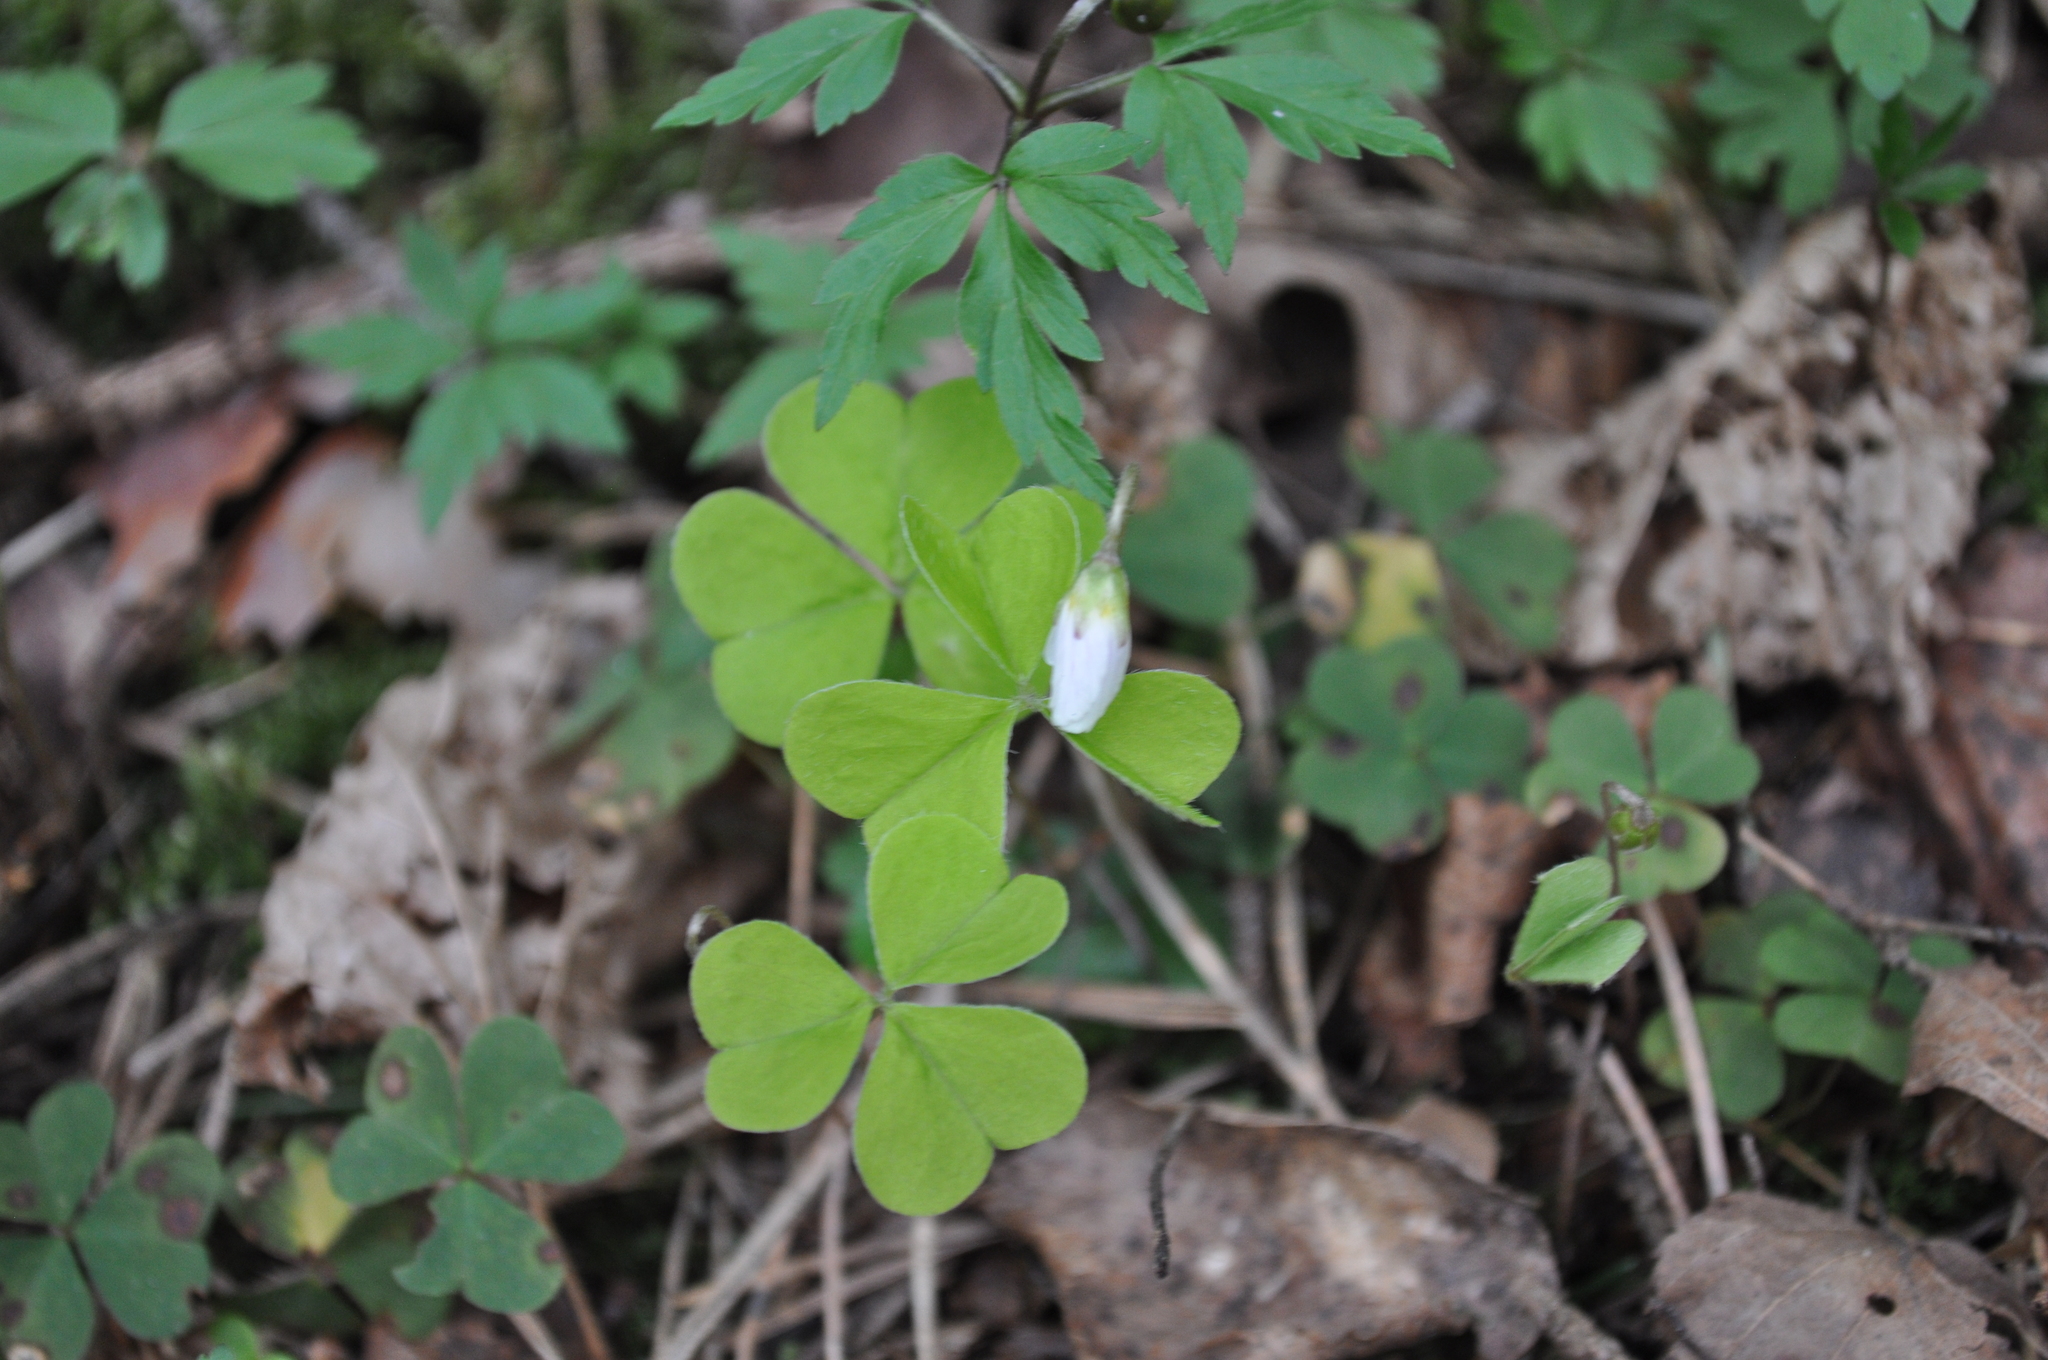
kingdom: Plantae
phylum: Tracheophyta
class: Magnoliopsida
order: Oxalidales
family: Oxalidaceae
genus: Oxalis
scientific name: Oxalis acetosella
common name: Wood-sorrel
